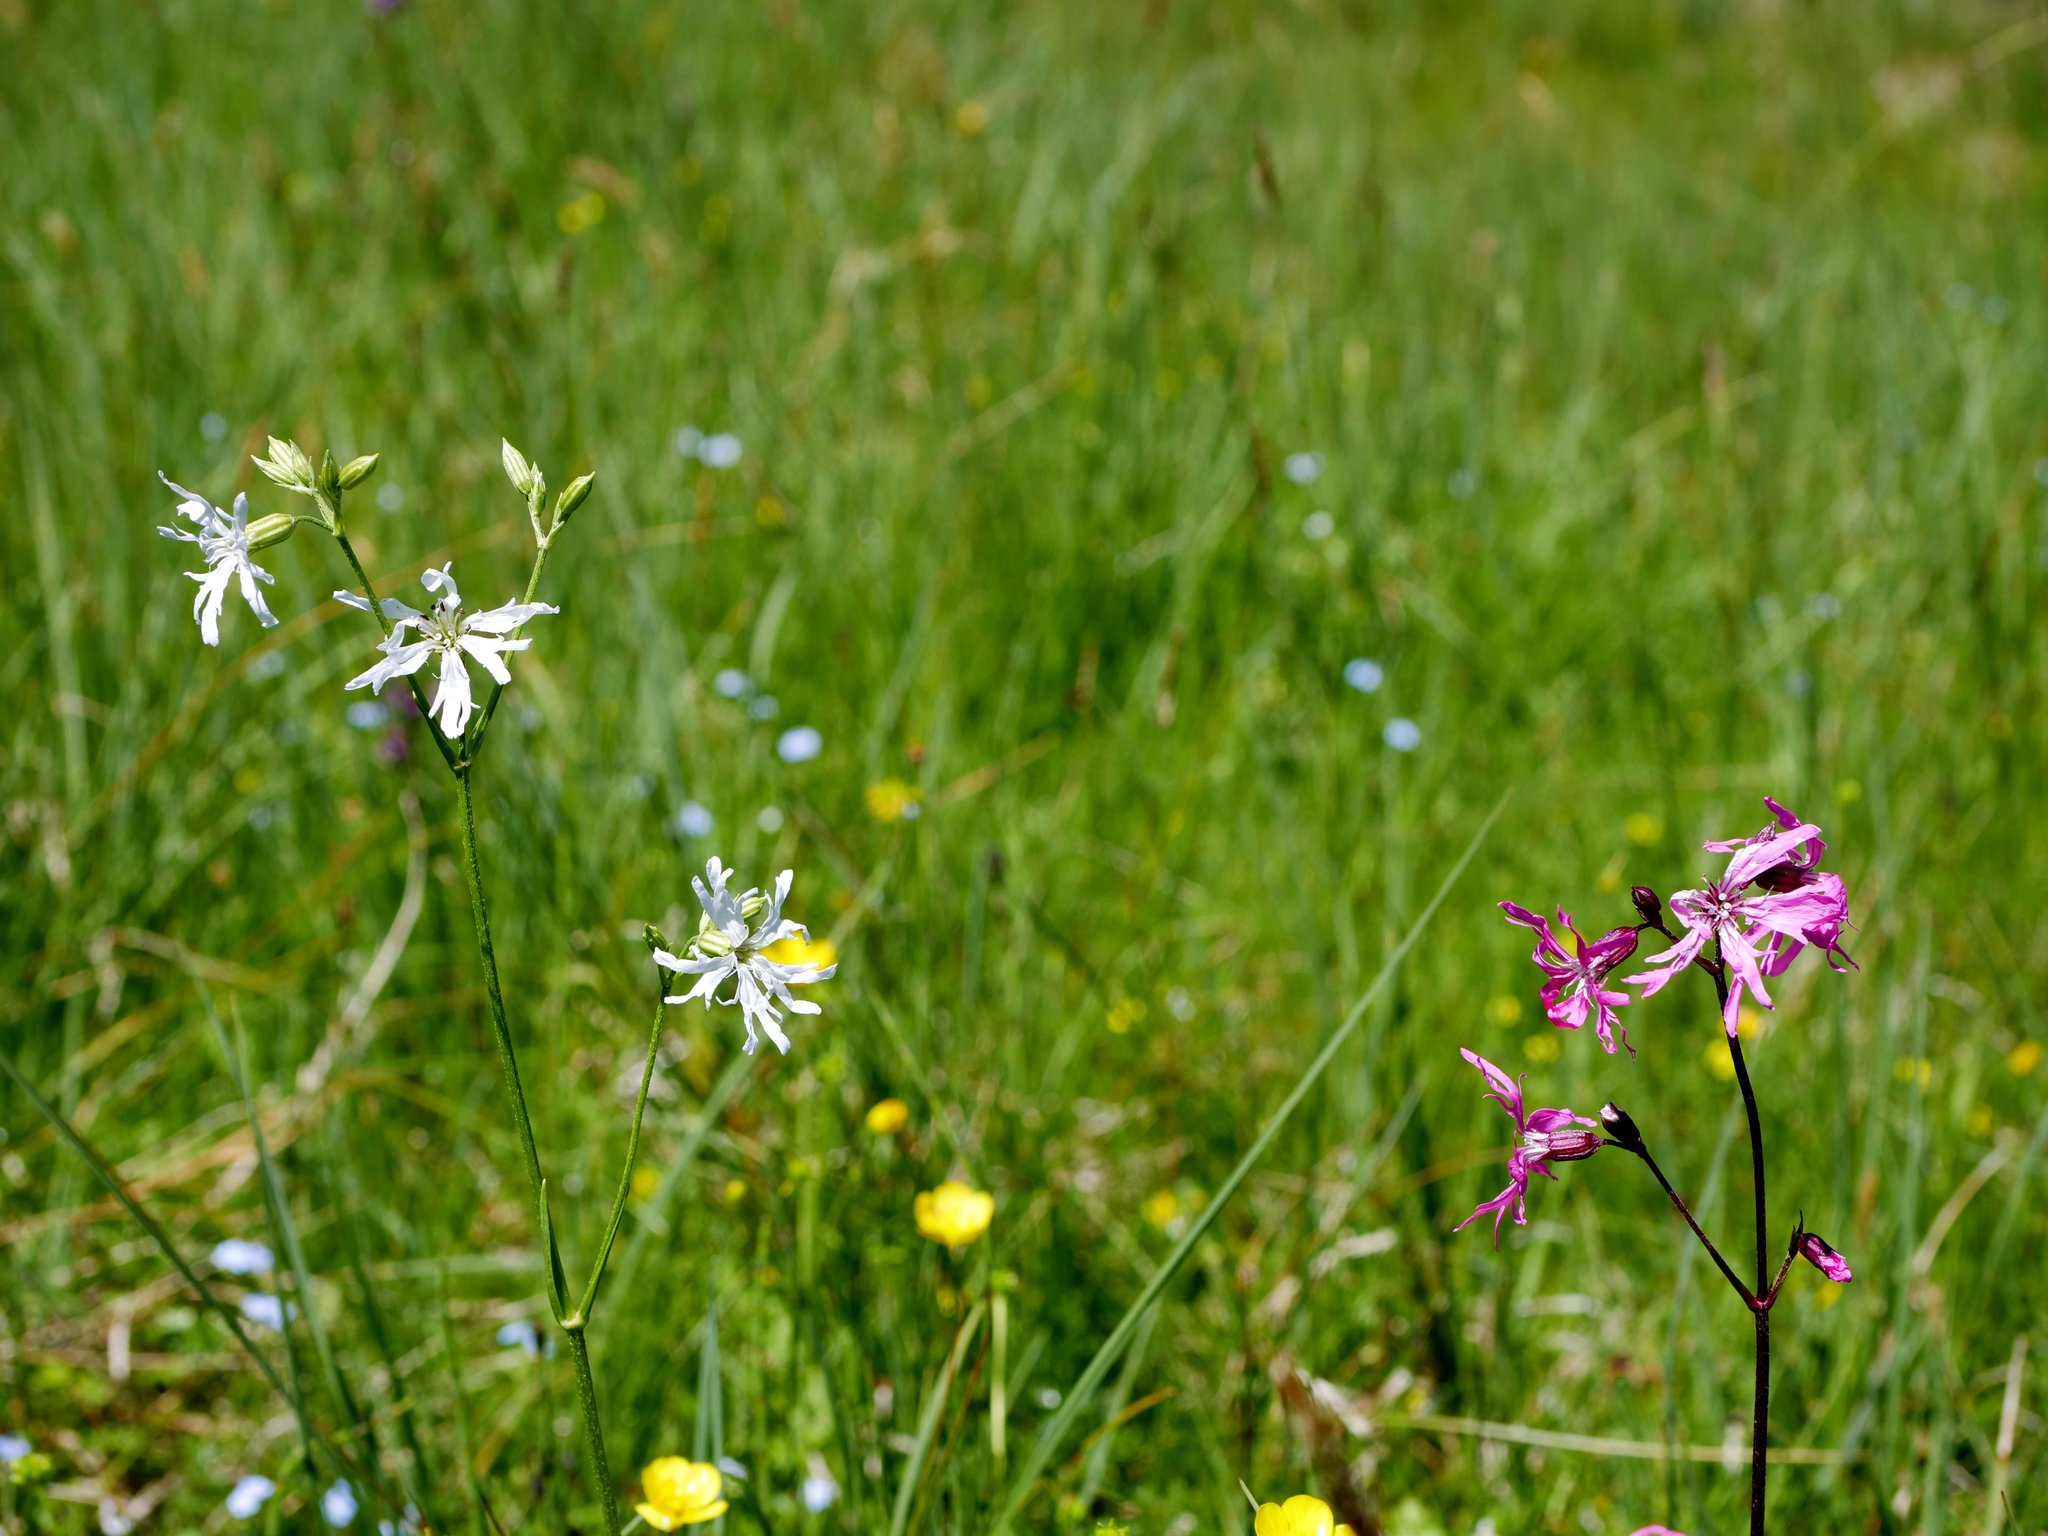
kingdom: Plantae
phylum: Tracheophyta
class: Magnoliopsida
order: Caryophyllales
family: Caryophyllaceae
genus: Silene
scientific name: Silene flos-cuculi
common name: Ragged-robin
